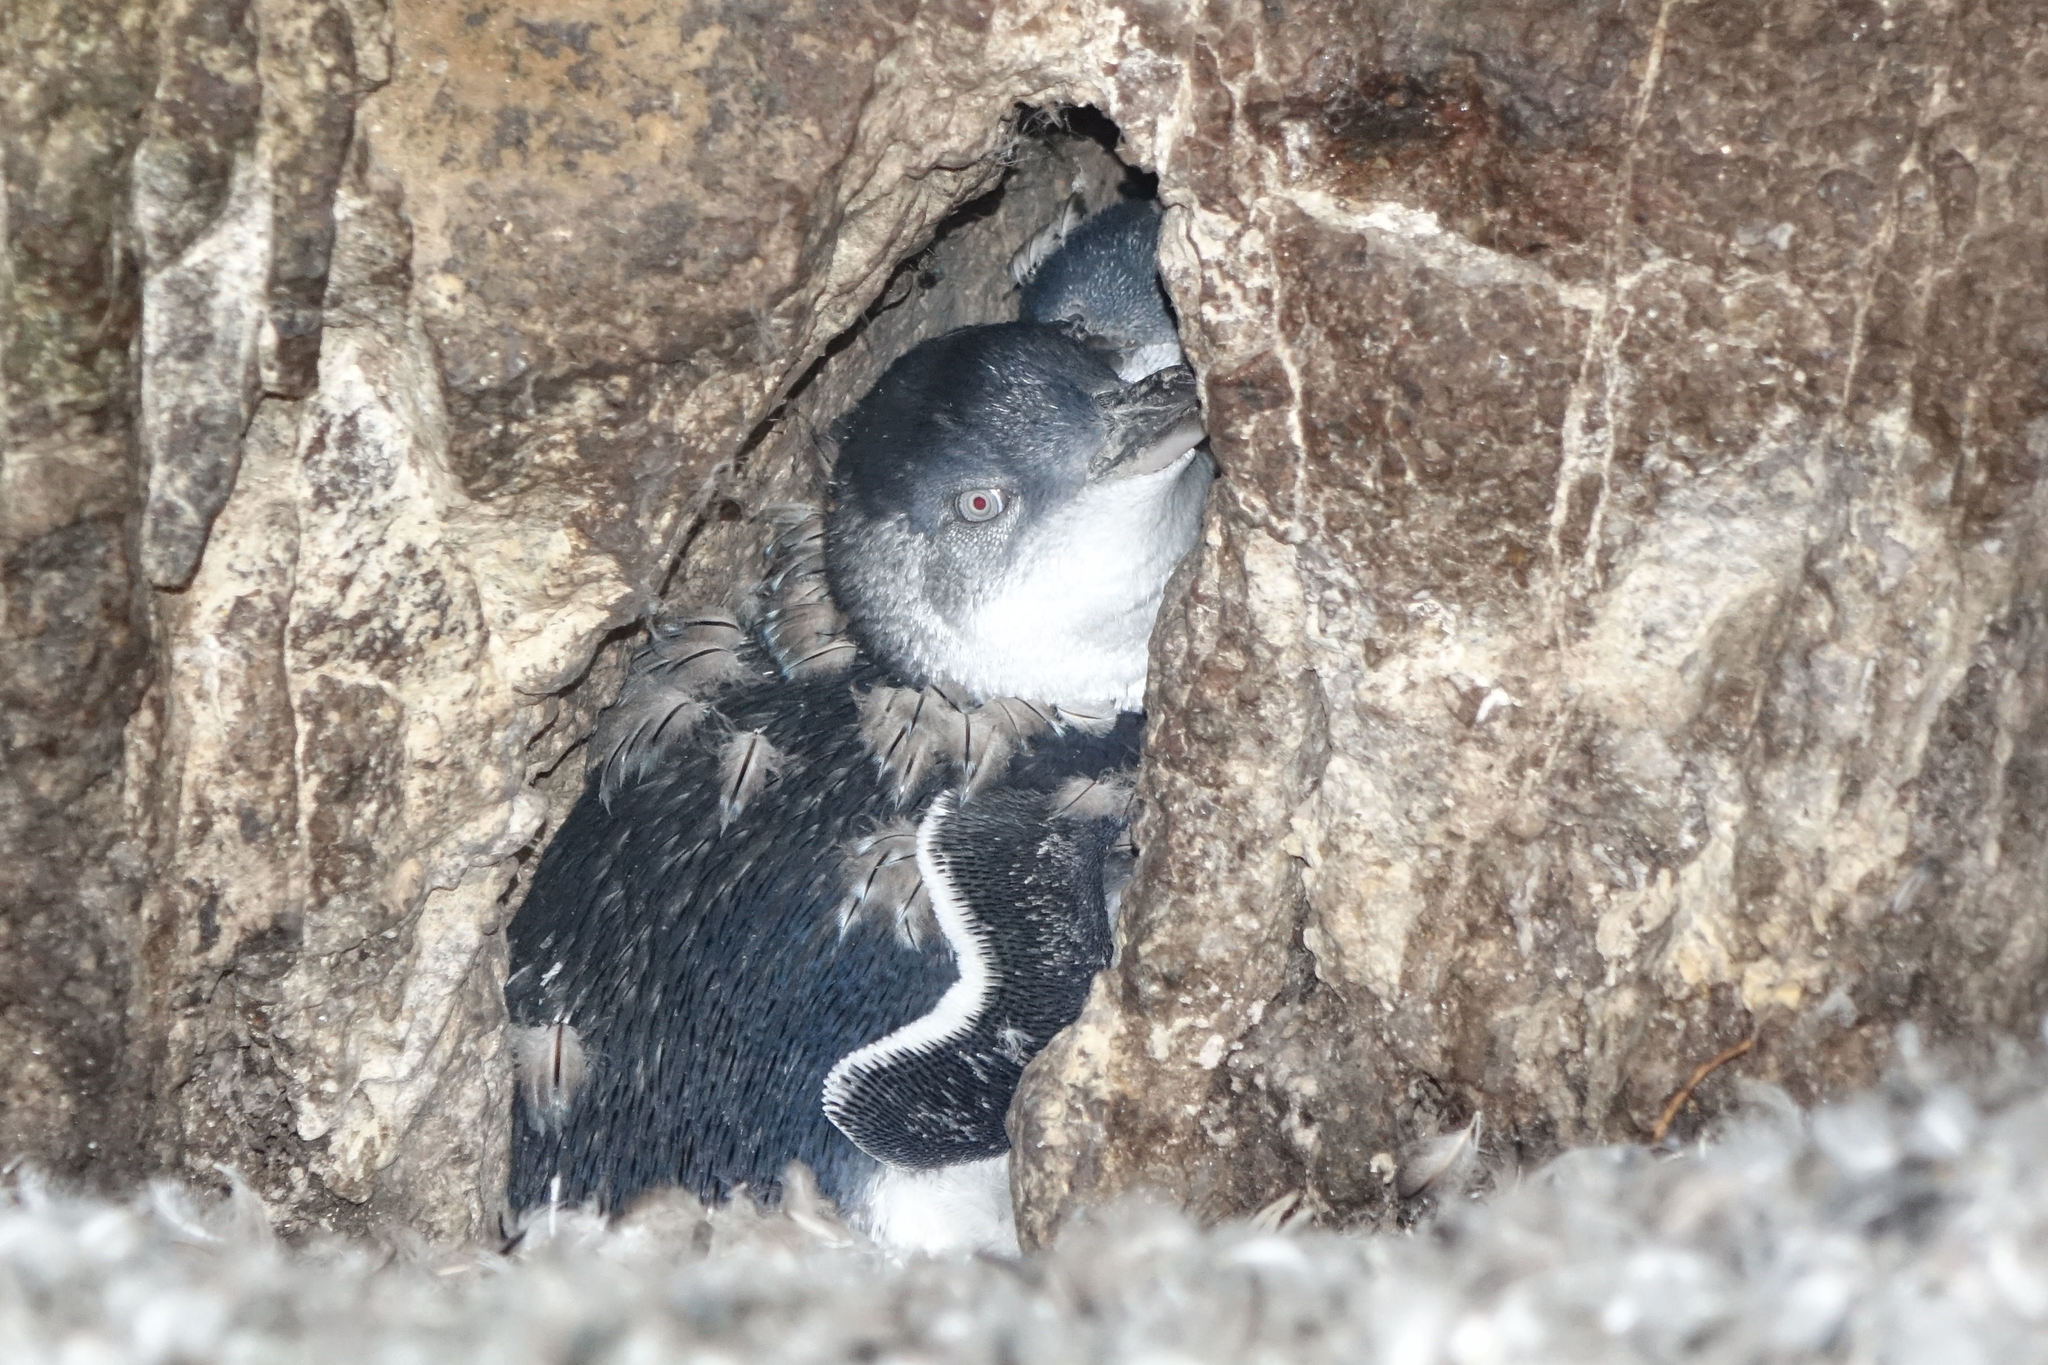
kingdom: Animalia
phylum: Chordata
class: Aves
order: Sphenisciformes
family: Spheniscidae
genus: Eudyptula
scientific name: Eudyptula minor
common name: Little penguin
